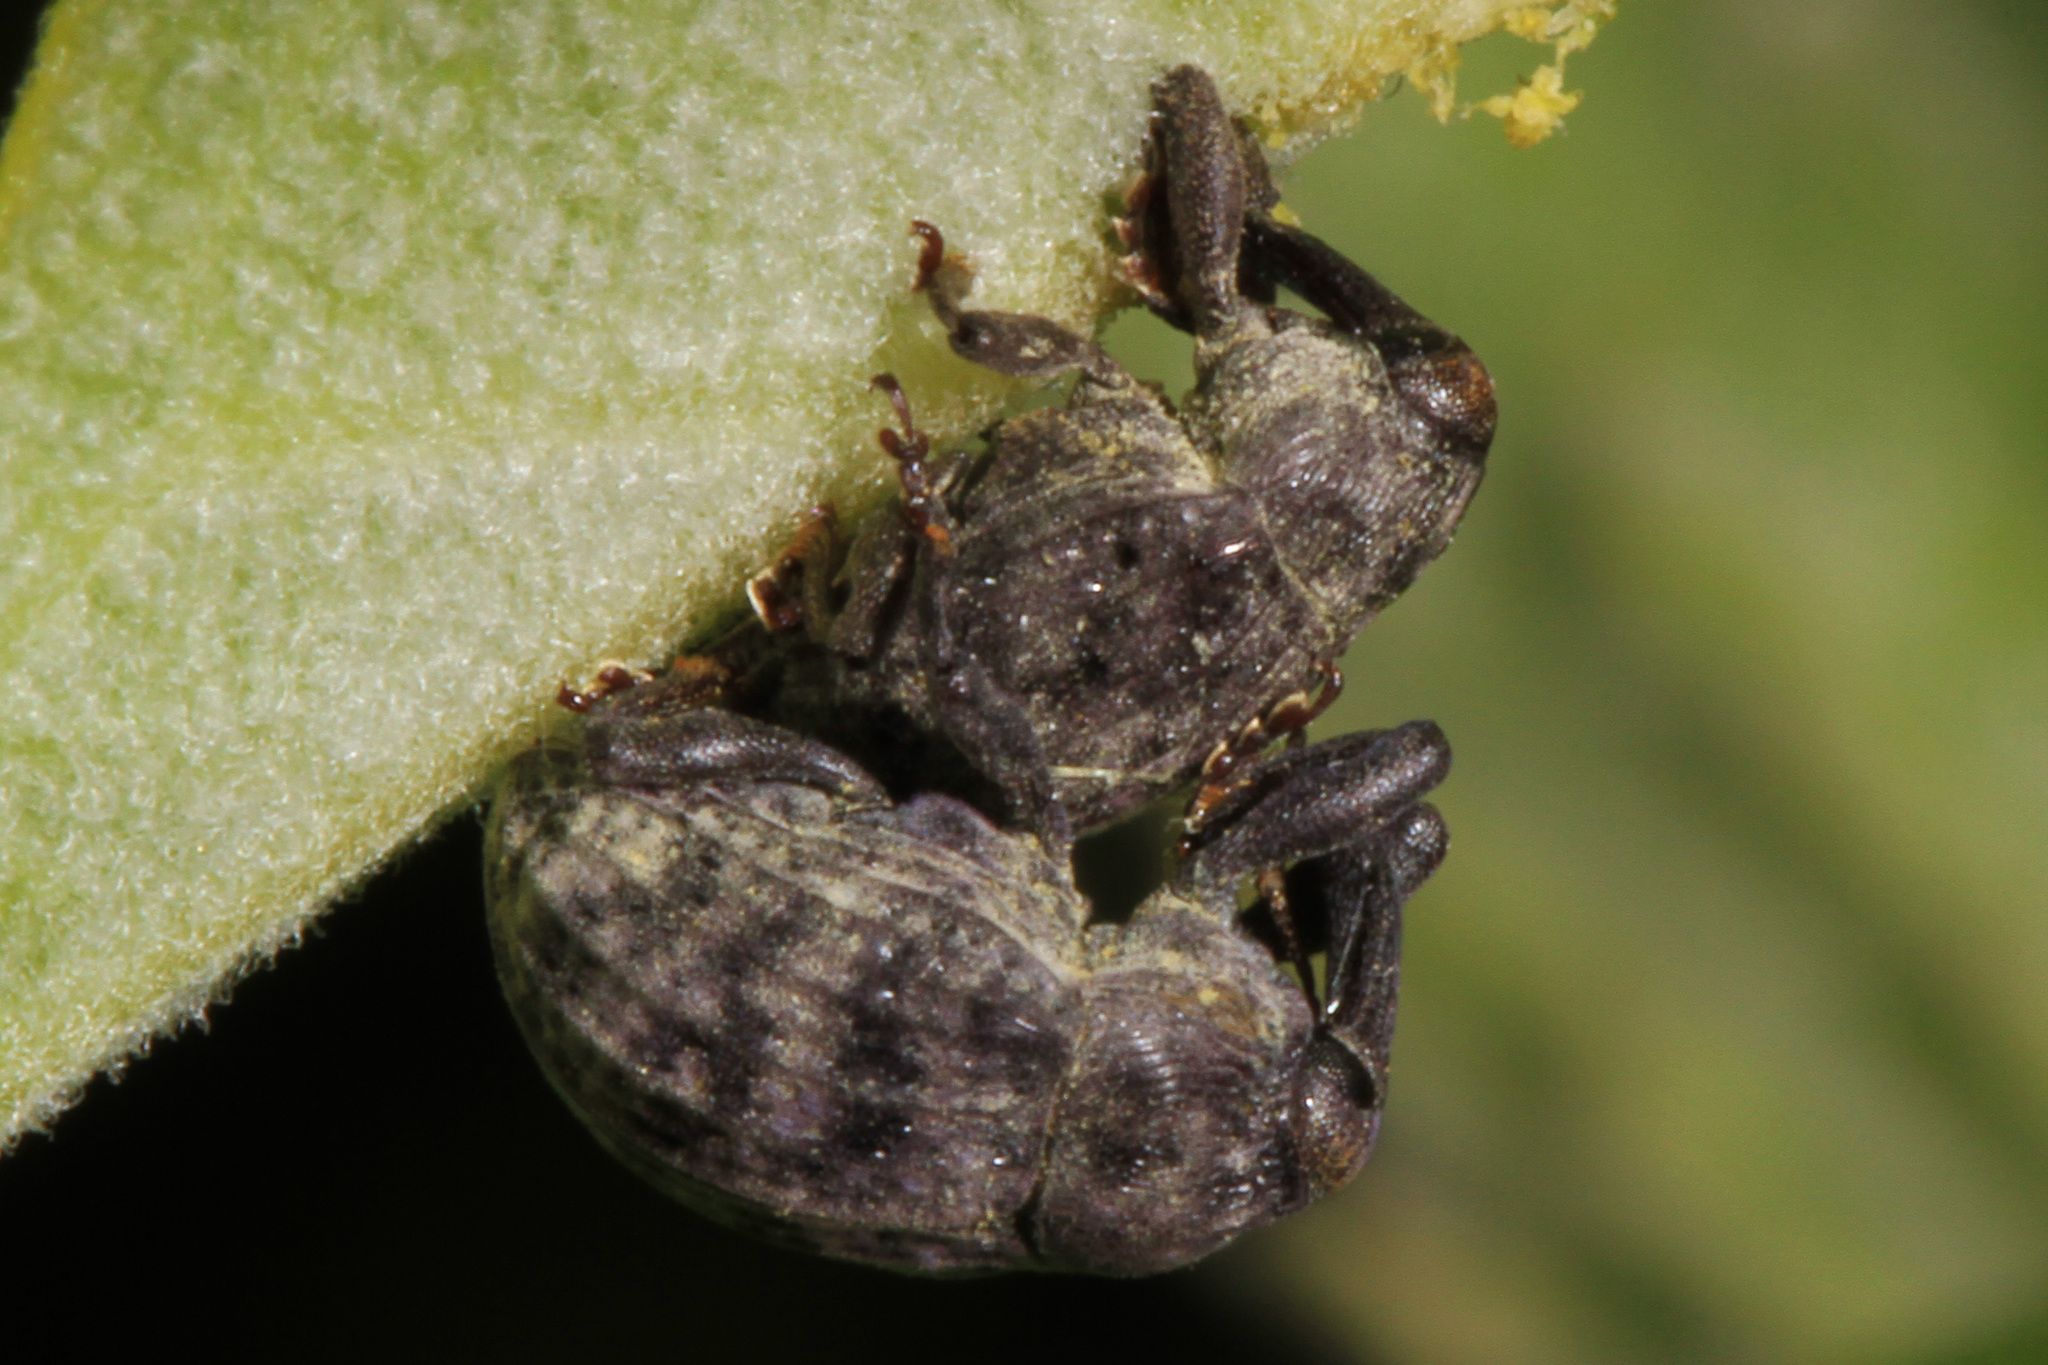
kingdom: Animalia
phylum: Arthropoda
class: Insecta
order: Coleoptera
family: Curculionidae
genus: Rhyssomatus
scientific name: Rhyssomatus lineaticollis
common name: Milkweed stem weevil
